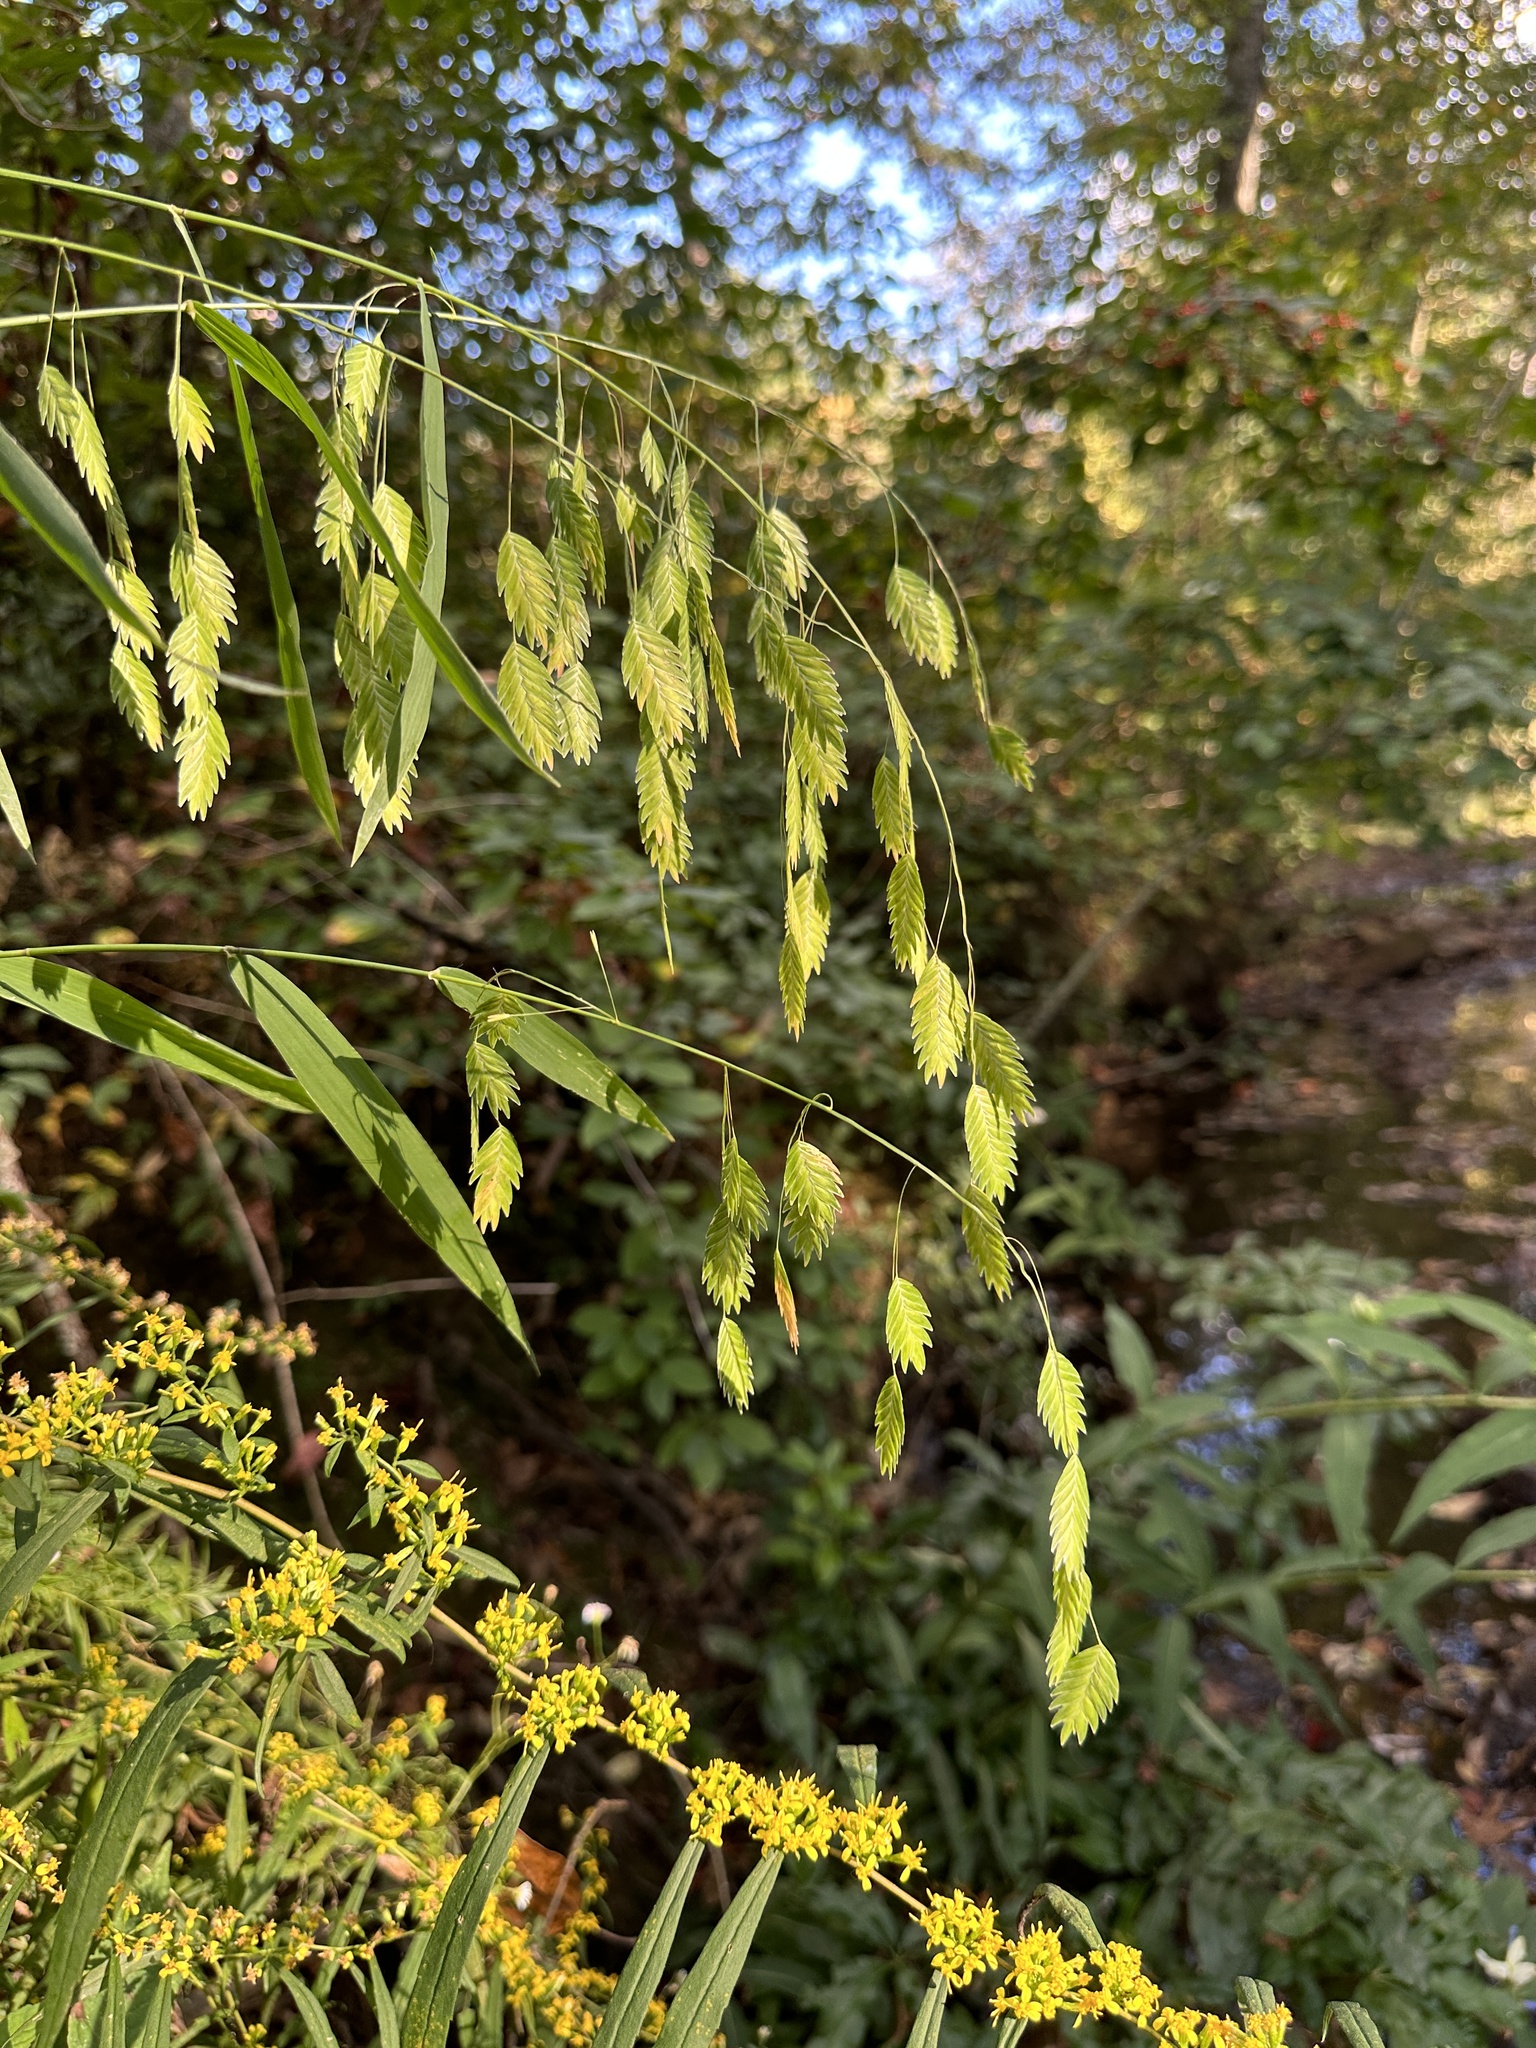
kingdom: Plantae
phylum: Tracheophyta
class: Liliopsida
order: Poales
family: Poaceae
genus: Chasmanthium
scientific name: Chasmanthium latifolium
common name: Broad-leaved chasmanthium
